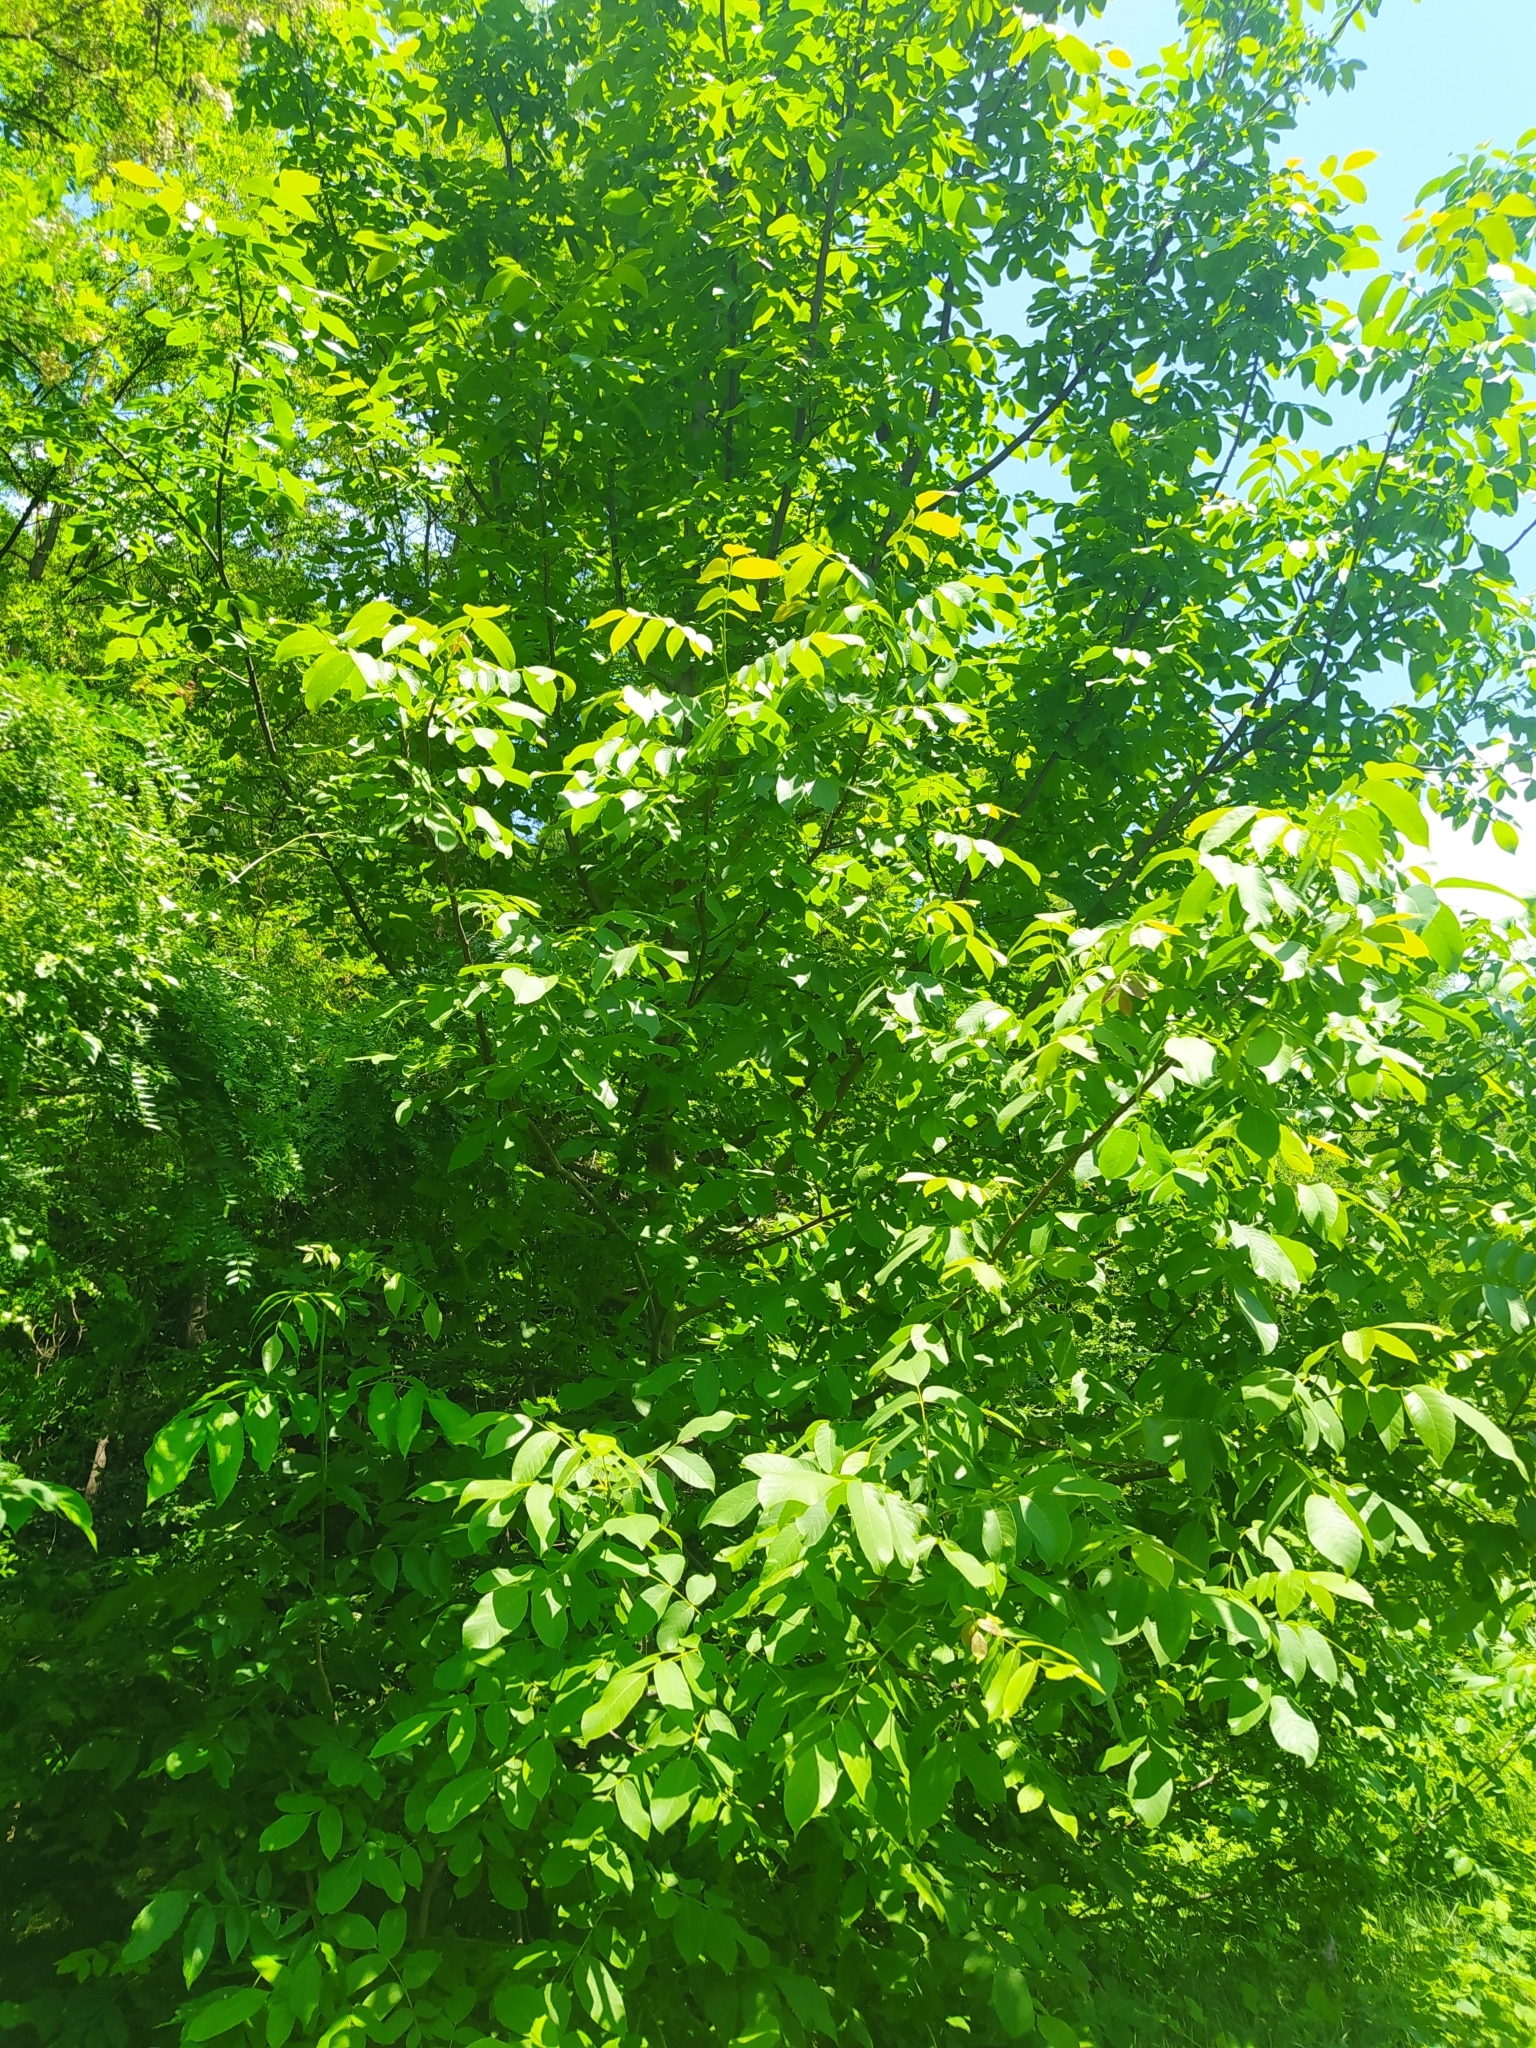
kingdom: Plantae
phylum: Tracheophyta
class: Magnoliopsida
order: Fagales
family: Juglandaceae
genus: Juglans
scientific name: Juglans regia
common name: Walnut
